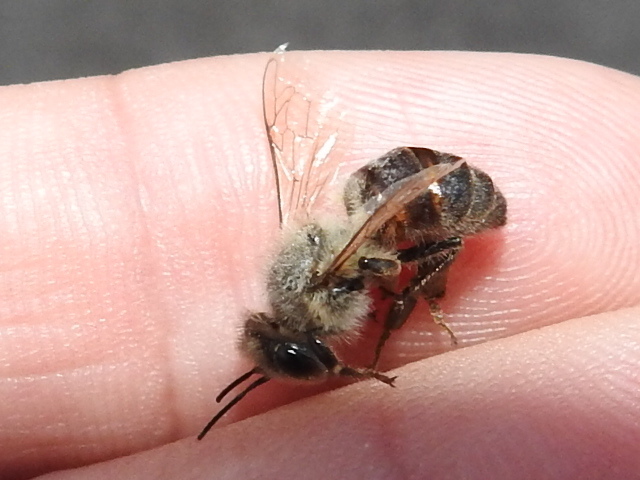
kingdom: Animalia
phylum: Arthropoda
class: Insecta
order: Hymenoptera
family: Apidae
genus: Apis
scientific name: Apis mellifera
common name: Honey bee
